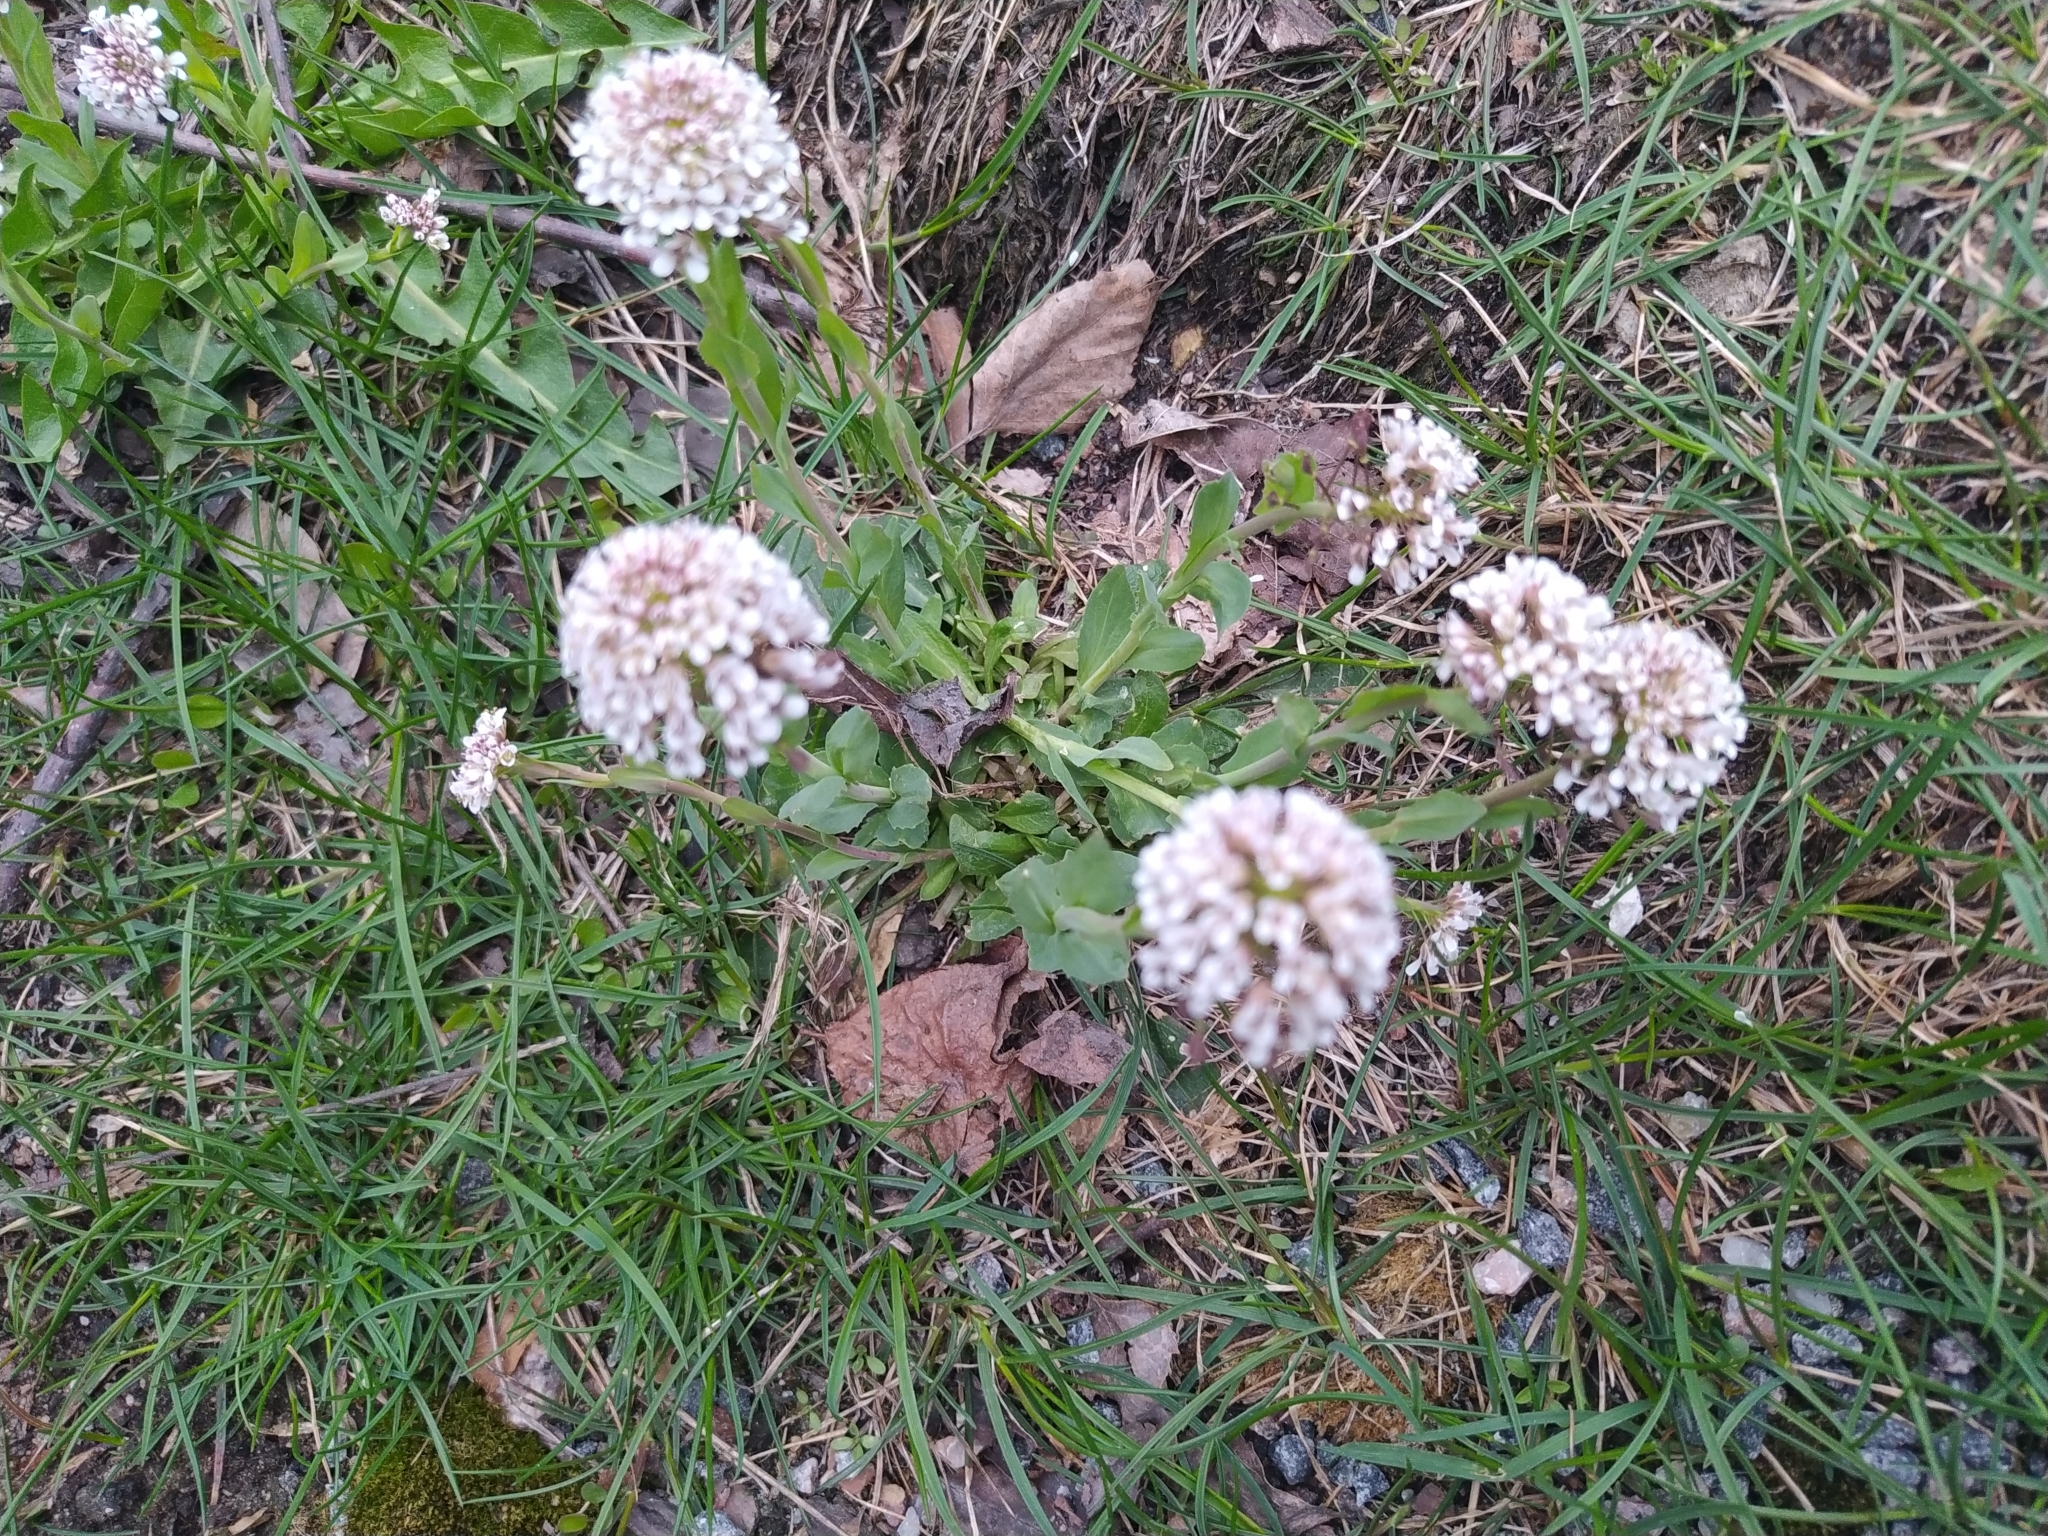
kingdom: Plantae
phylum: Tracheophyta
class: Magnoliopsida
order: Brassicales
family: Brassicaceae
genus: Noccaea
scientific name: Noccaea caerulescens
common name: Alpine pennycress
